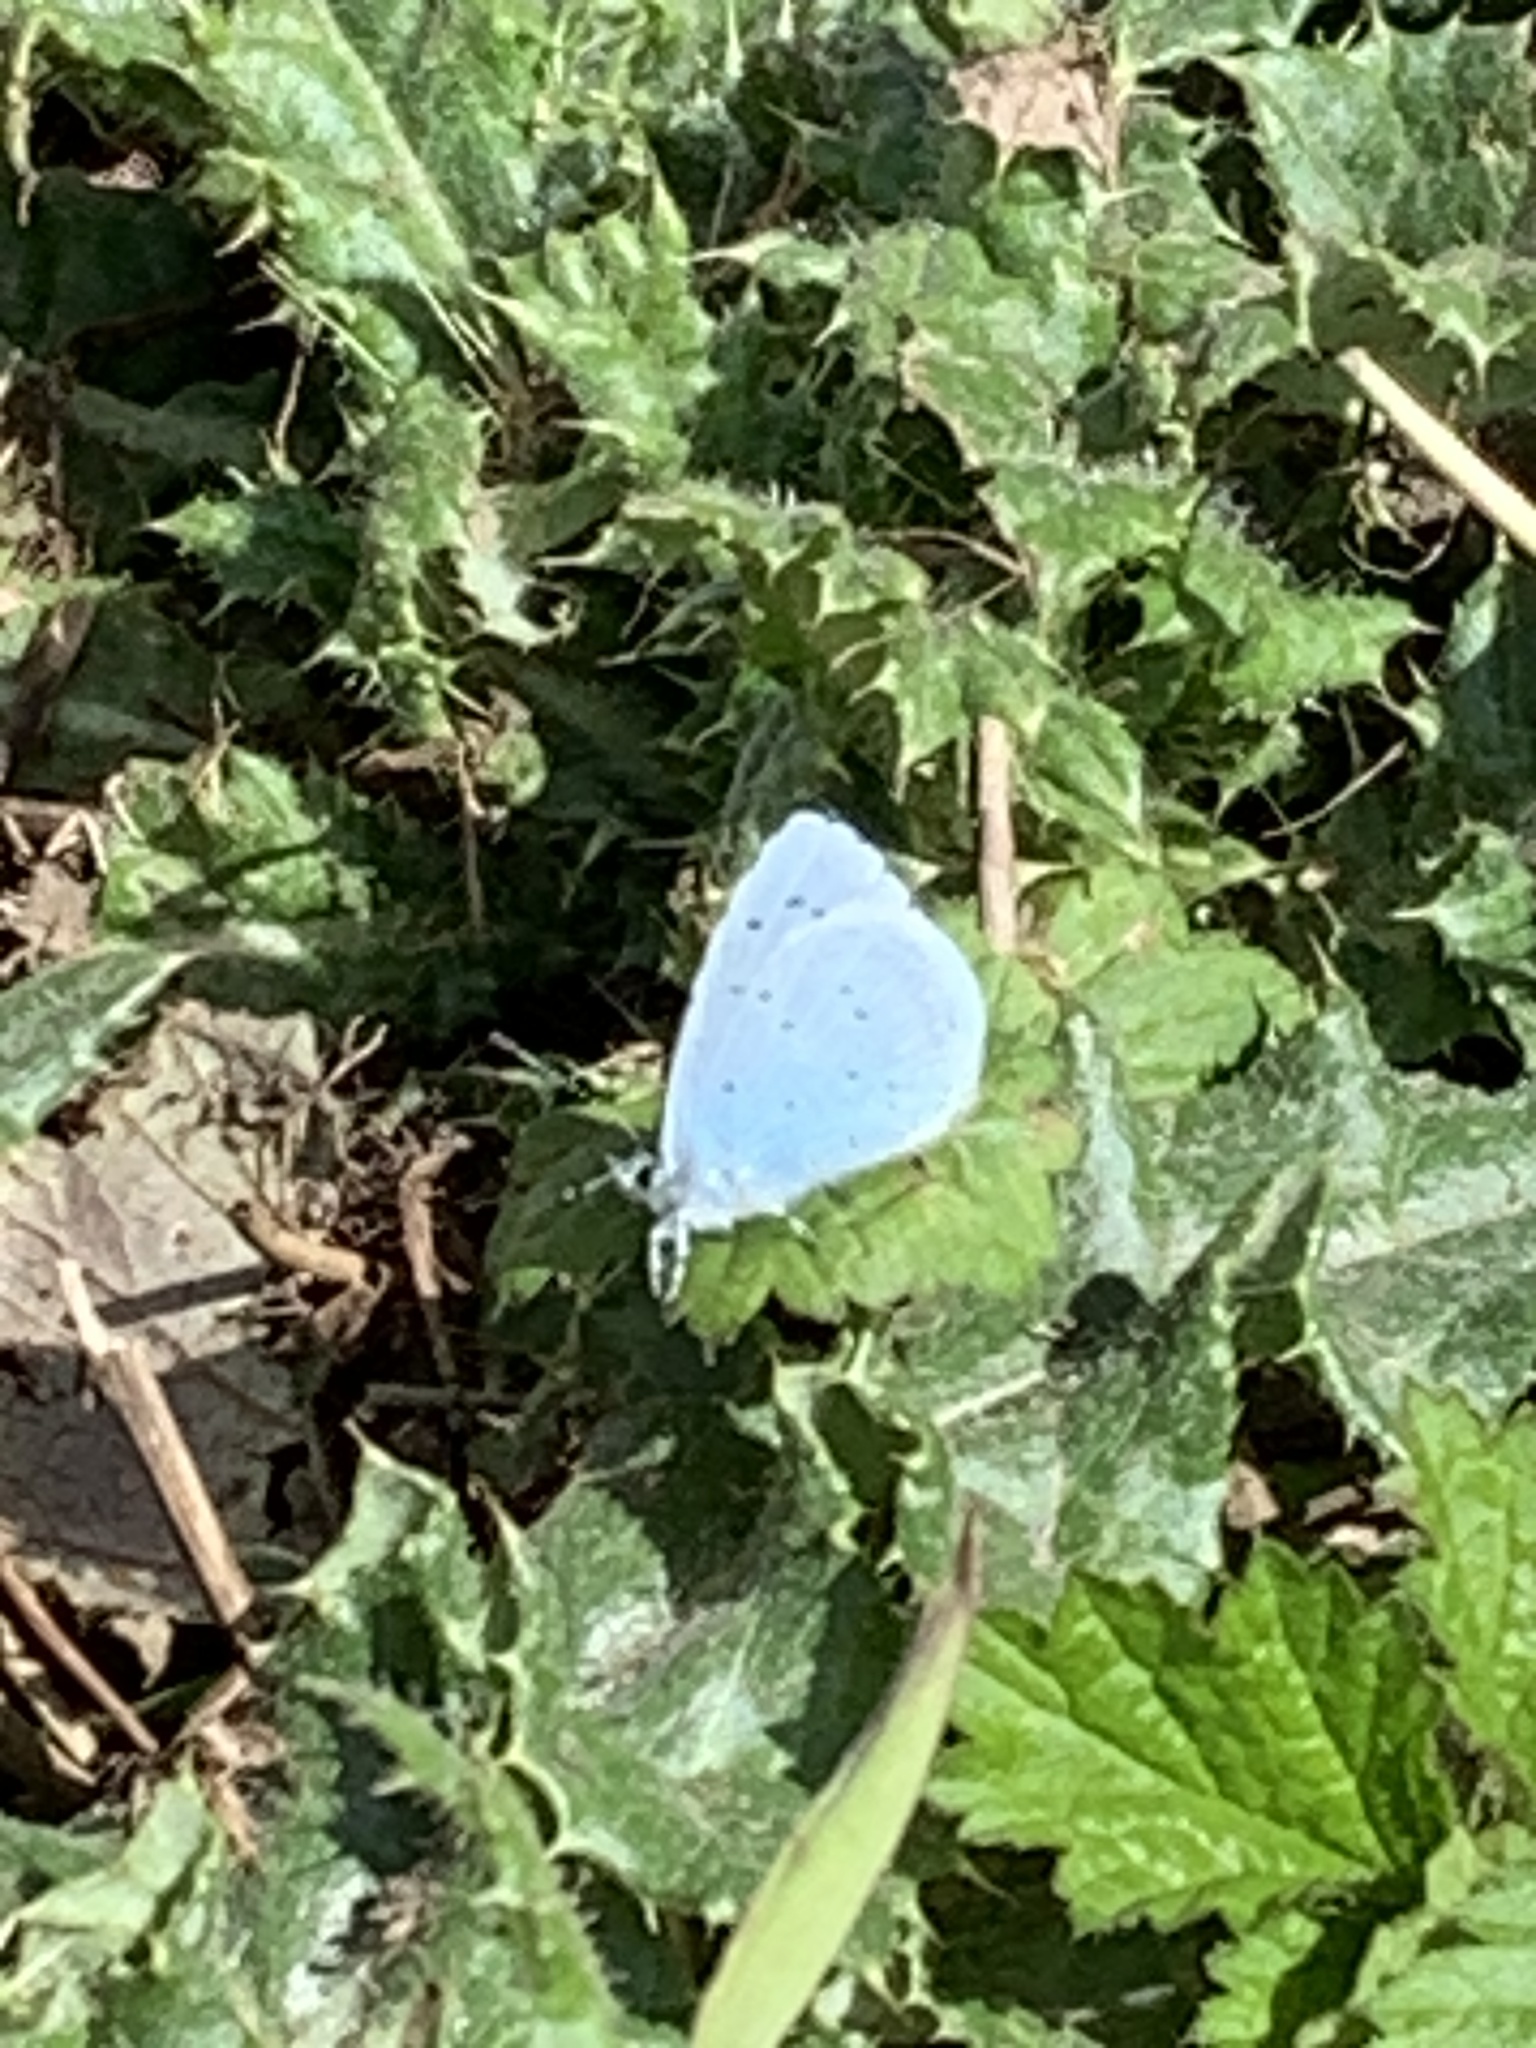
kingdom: Animalia
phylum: Arthropoda
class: Insecta
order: Lepidoptera
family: Lycaenidae
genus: Celastrina
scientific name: Celastrina argiolus
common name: Holly blue
